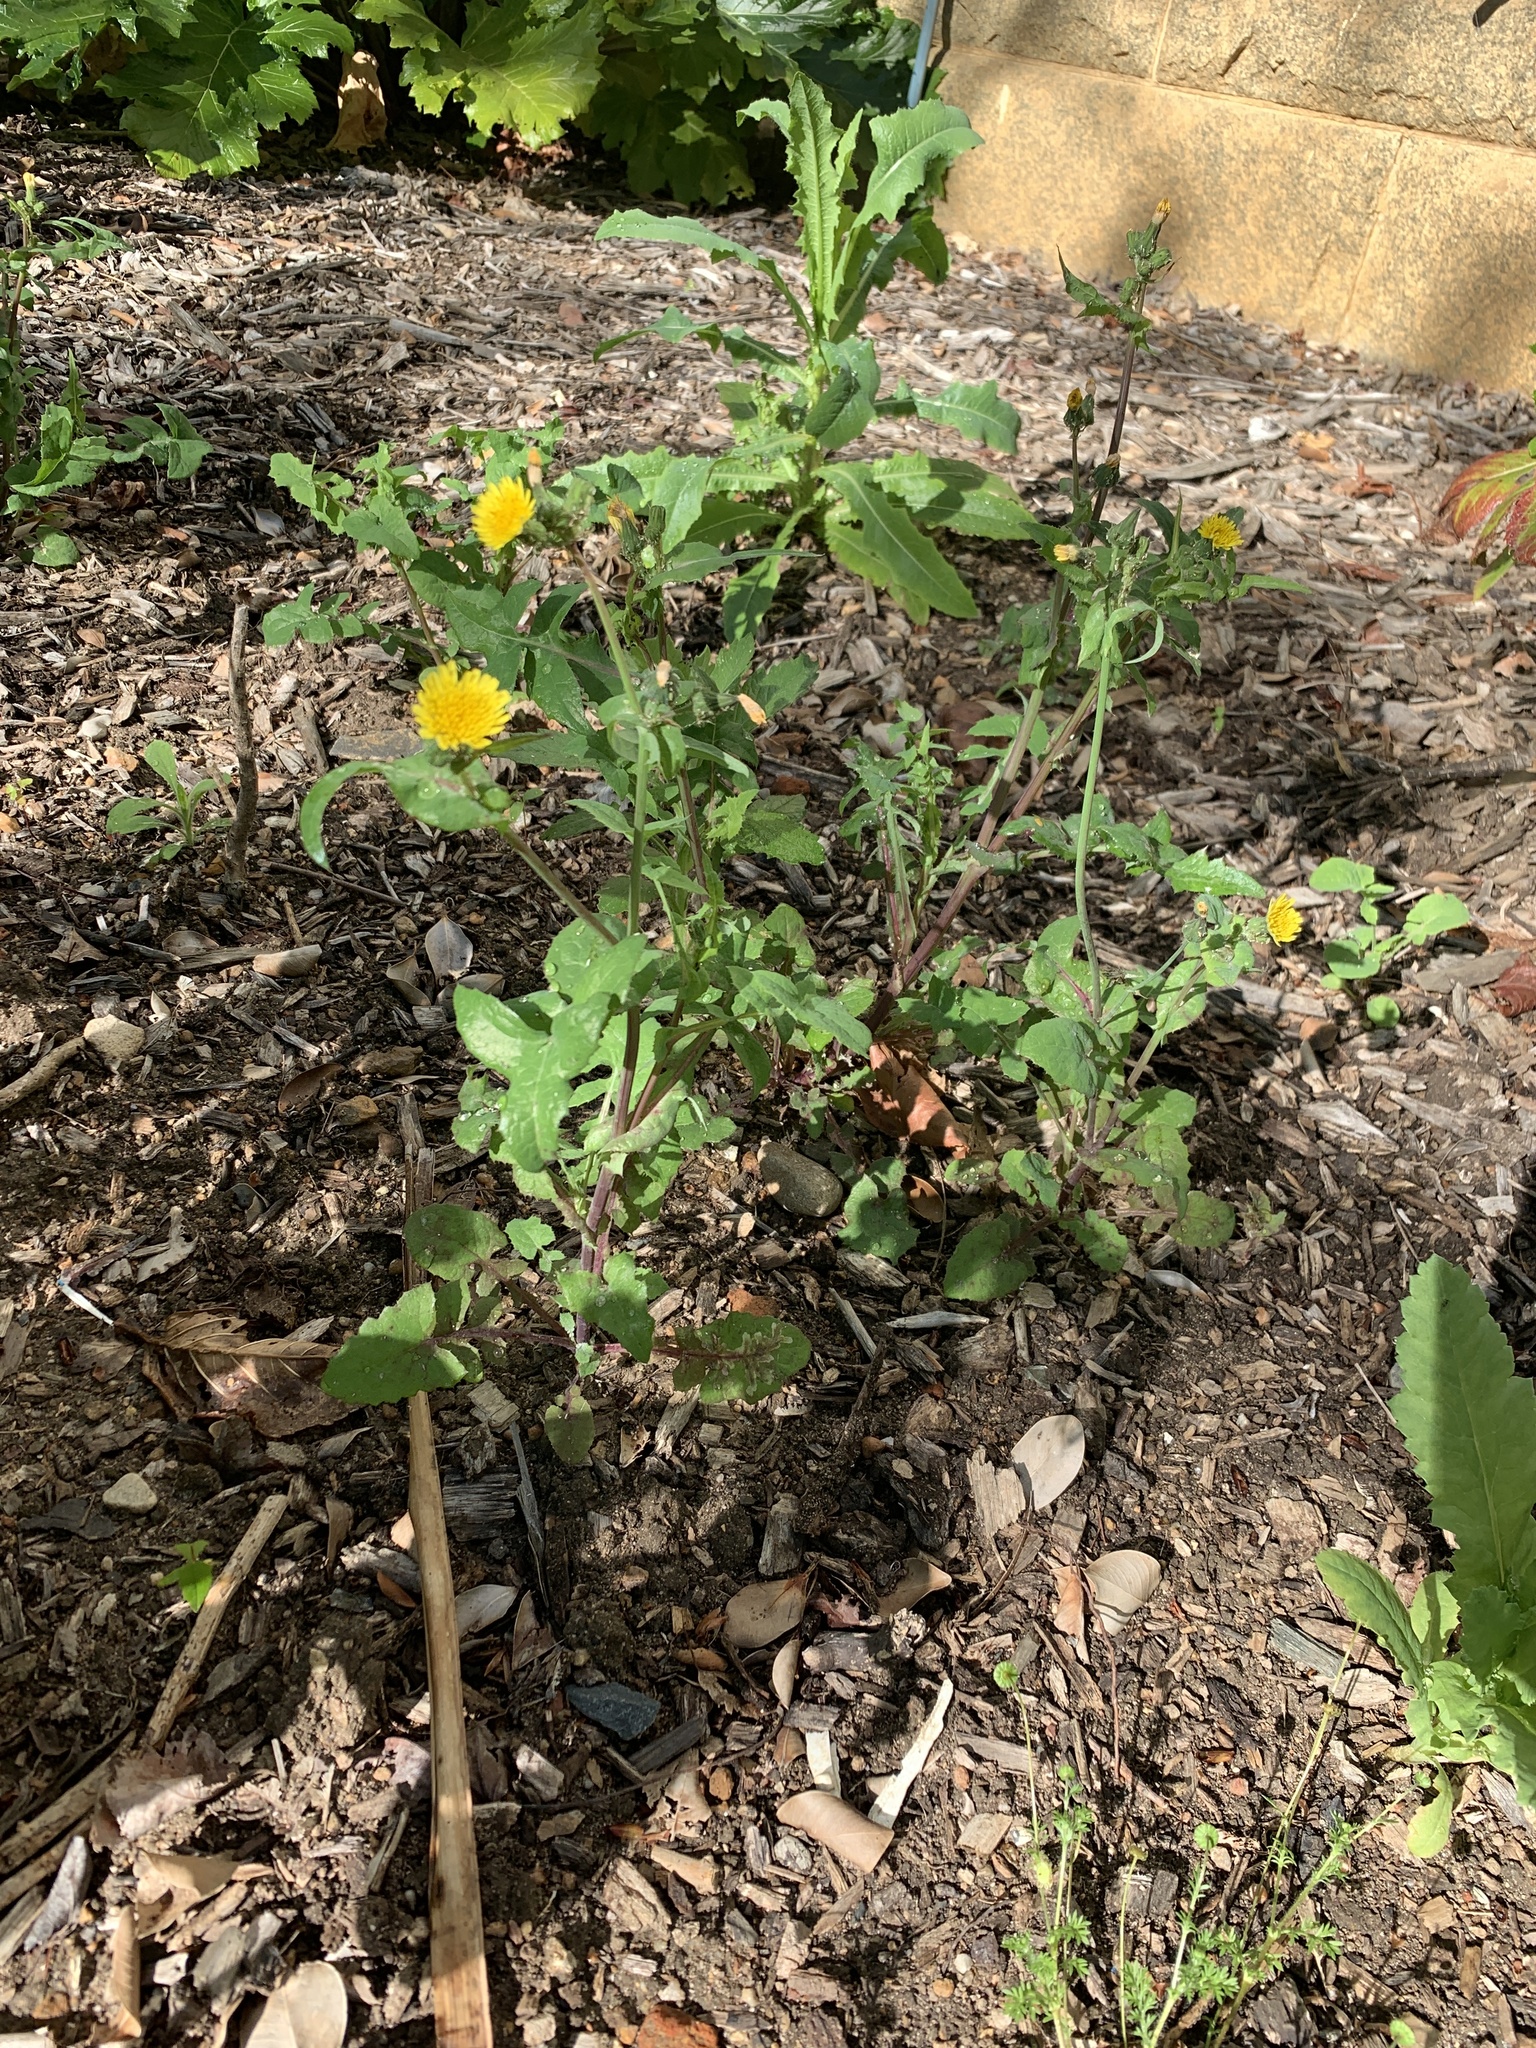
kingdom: Plantae
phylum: Tracheophyta
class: Magnoliopsida
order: Asterales
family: Asteraceae
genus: Sonchus
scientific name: Sonchus oleraceus
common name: Common sowthistle
